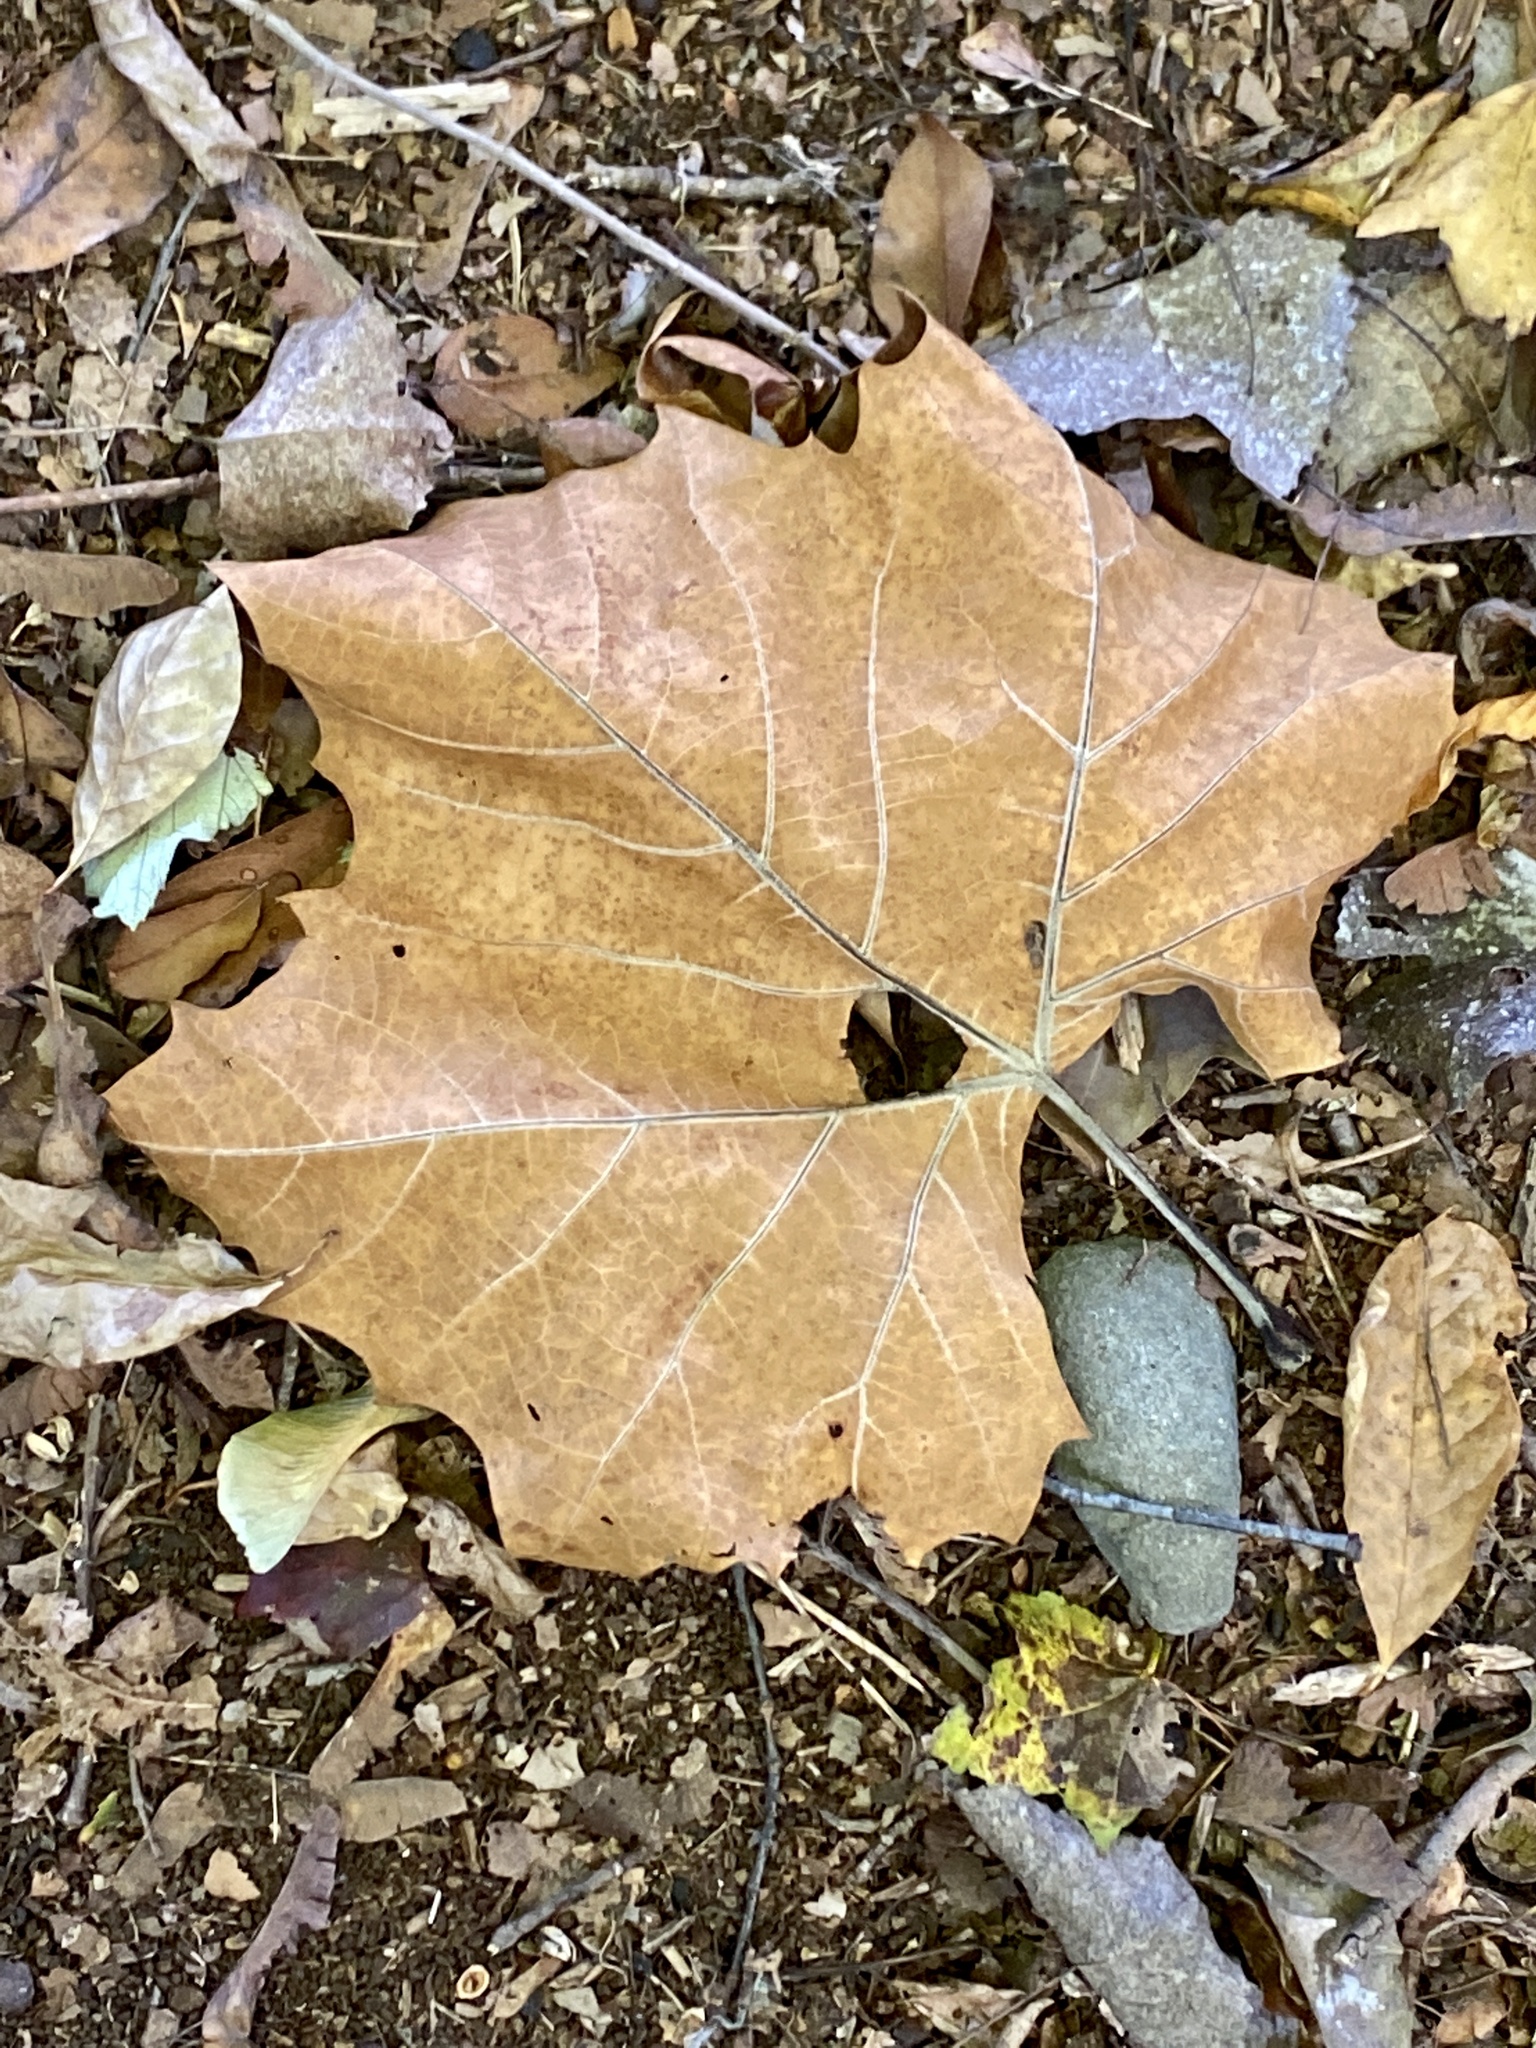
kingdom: Plantae
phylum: Tracheophyta
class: Magnoliopsida
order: Proteales
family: Platanaceae
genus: Platanus
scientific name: Platanus occidentalis
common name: American sycamore
